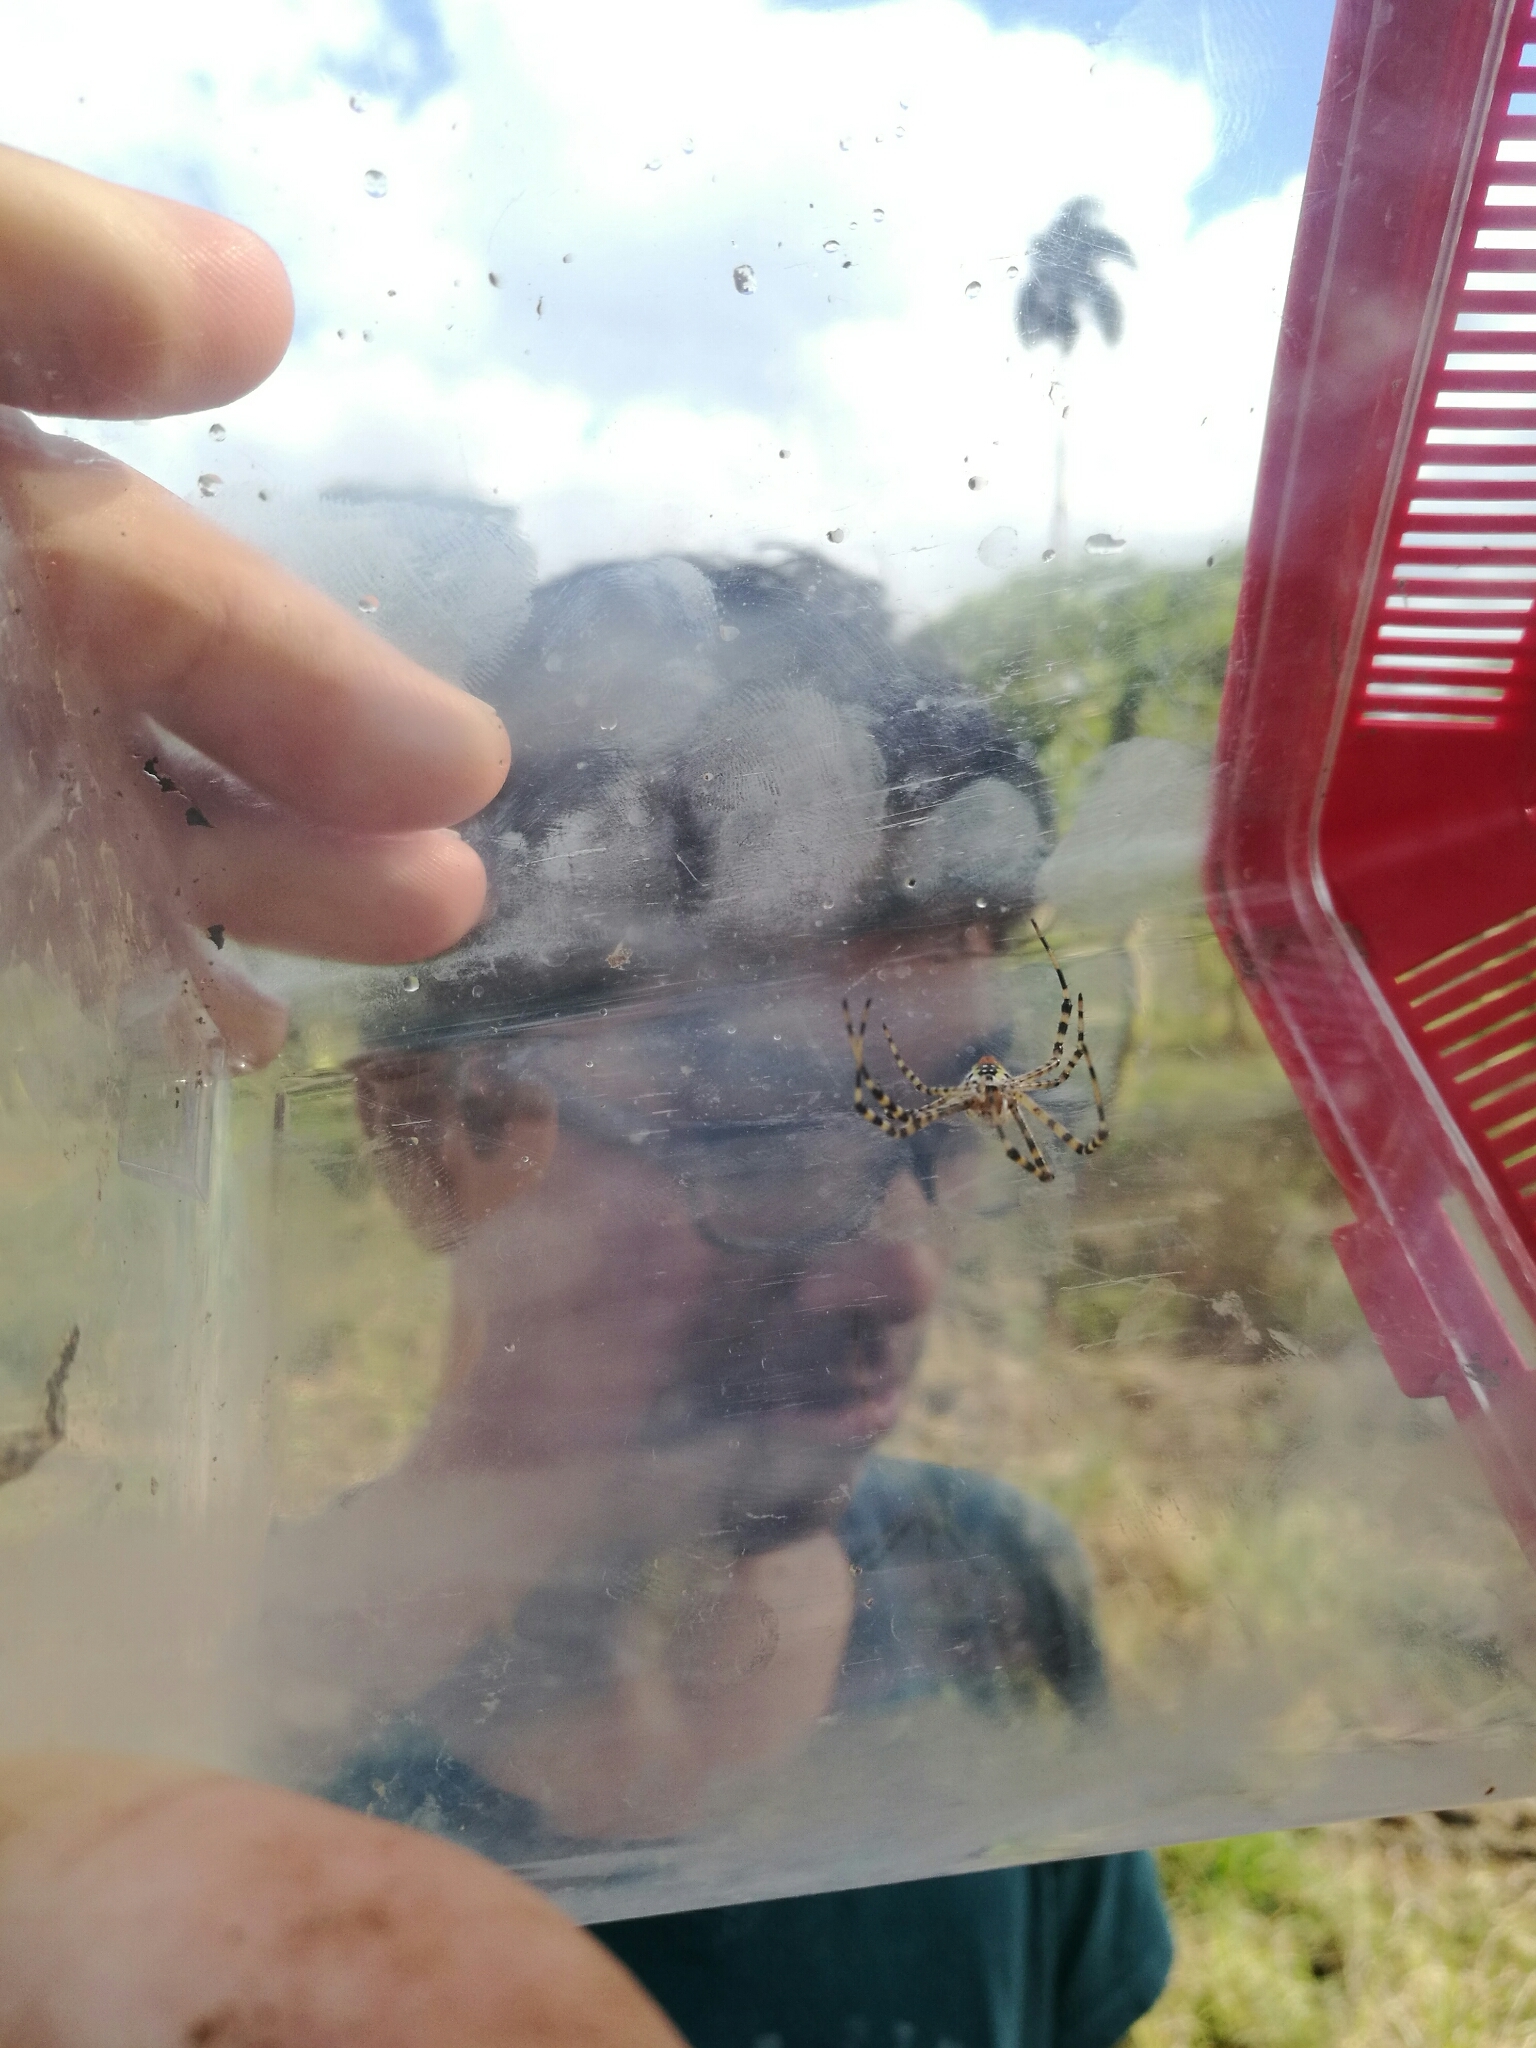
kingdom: Animalia
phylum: Arthropoda
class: Arachnida
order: Araneae
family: Araneidae
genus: Argiope
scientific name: Argiope trifasciata
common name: Banded garden spider
